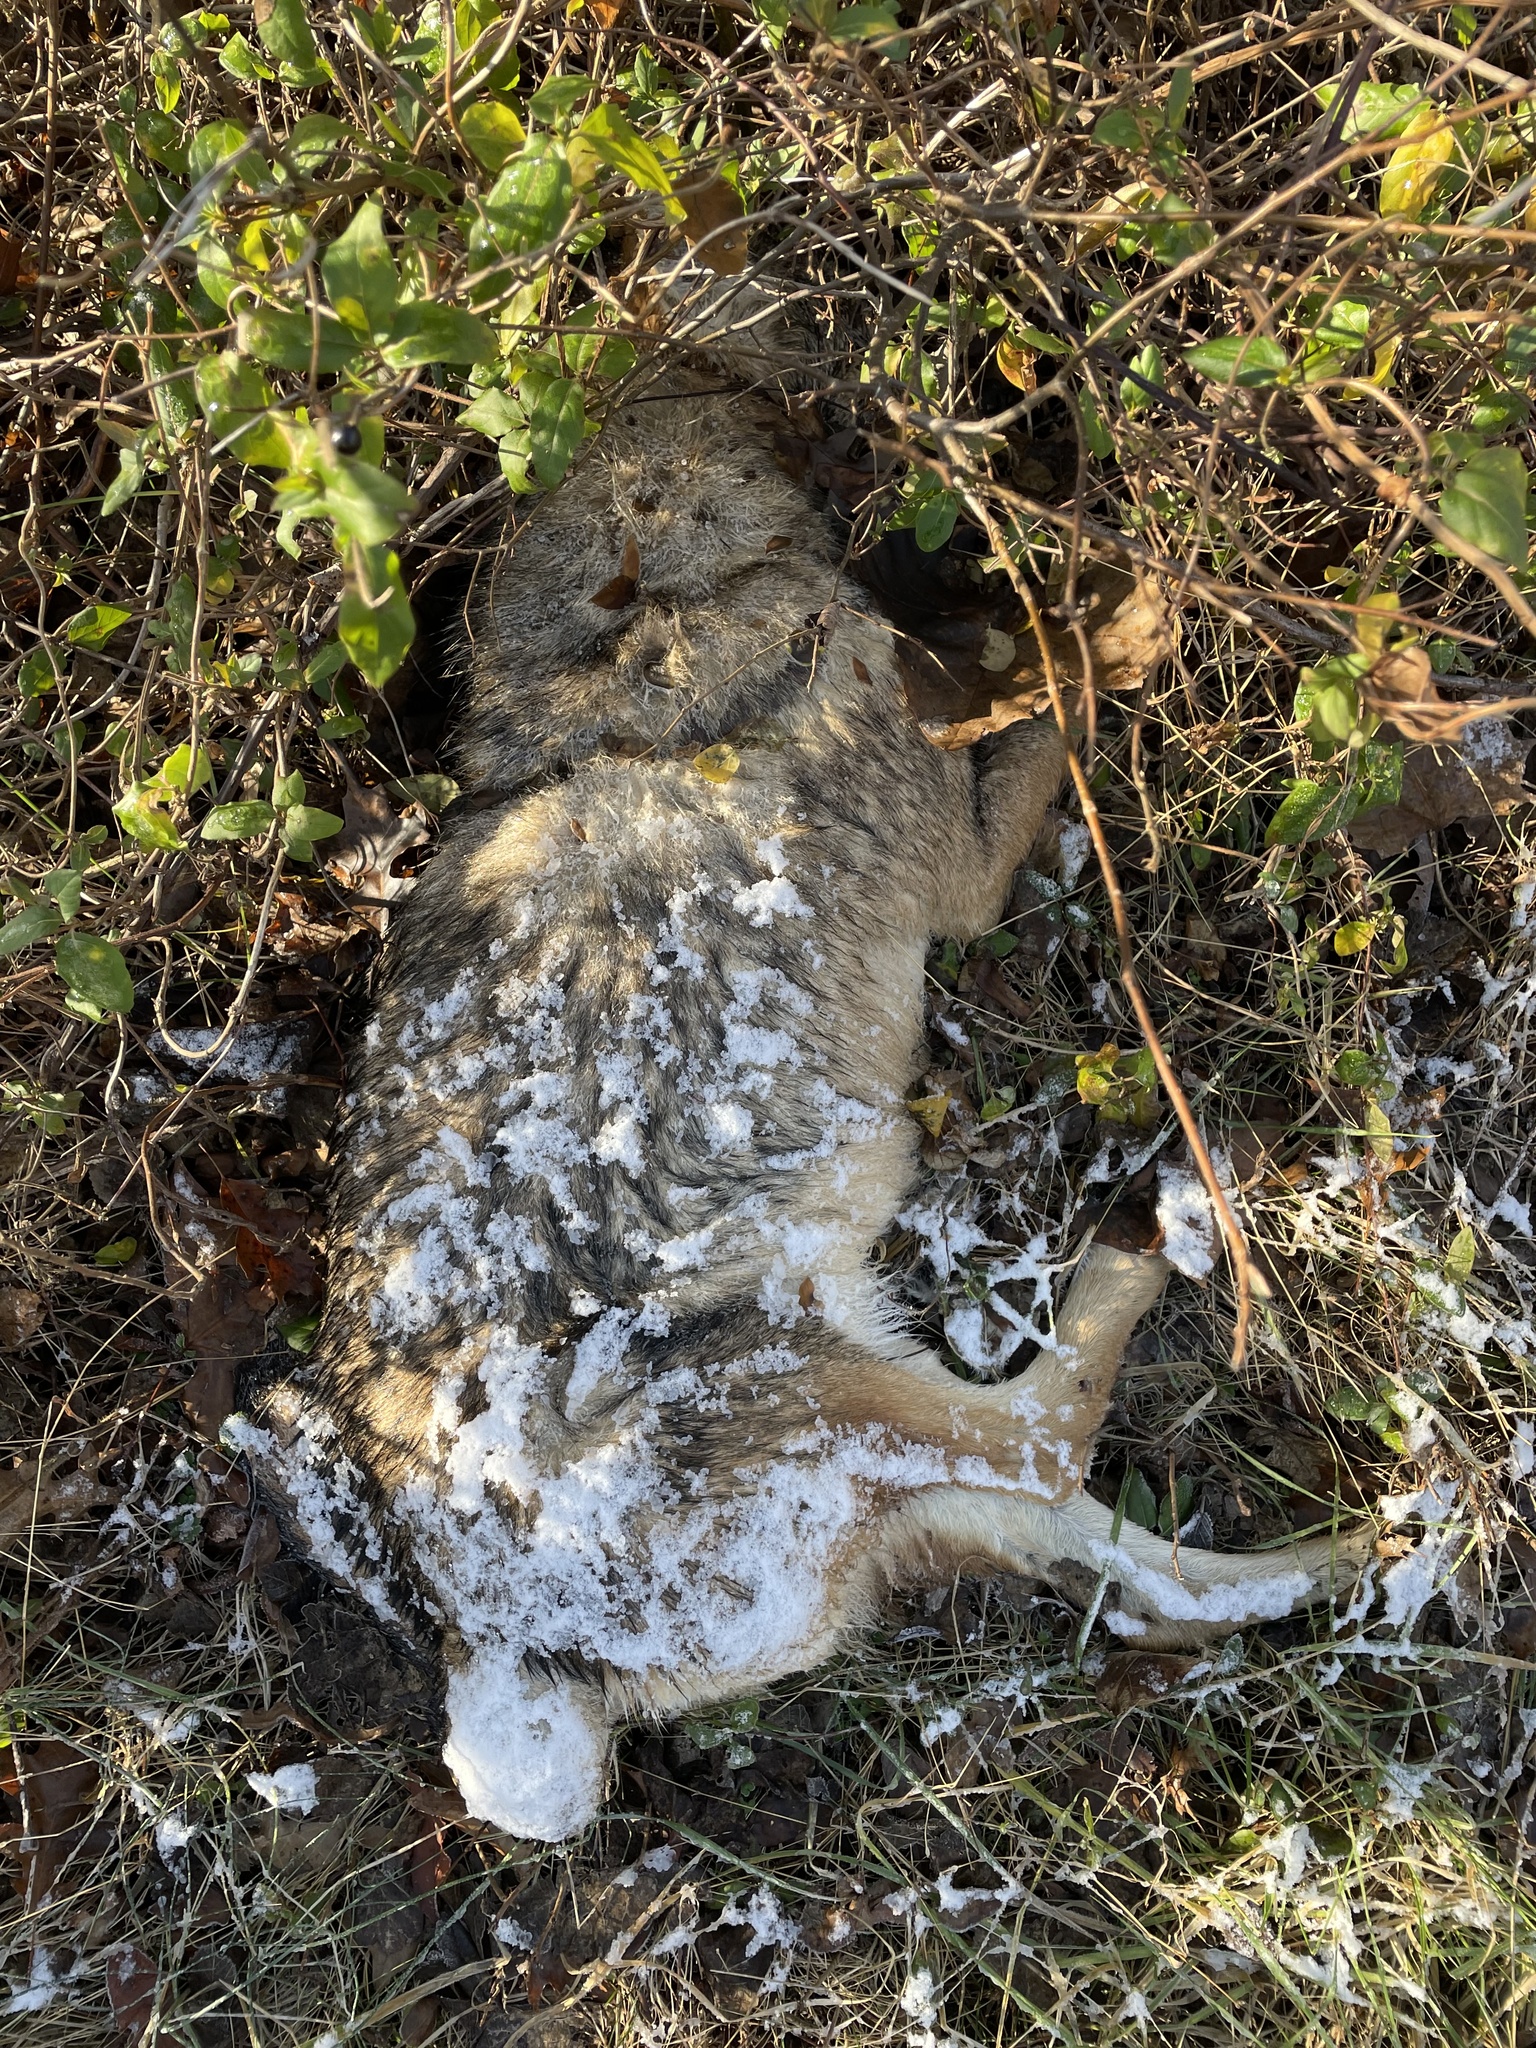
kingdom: Animalia
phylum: Chordata
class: Mammalia
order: Carnivora
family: Canidae
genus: Canis
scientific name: Canis latrans
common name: Coyote
